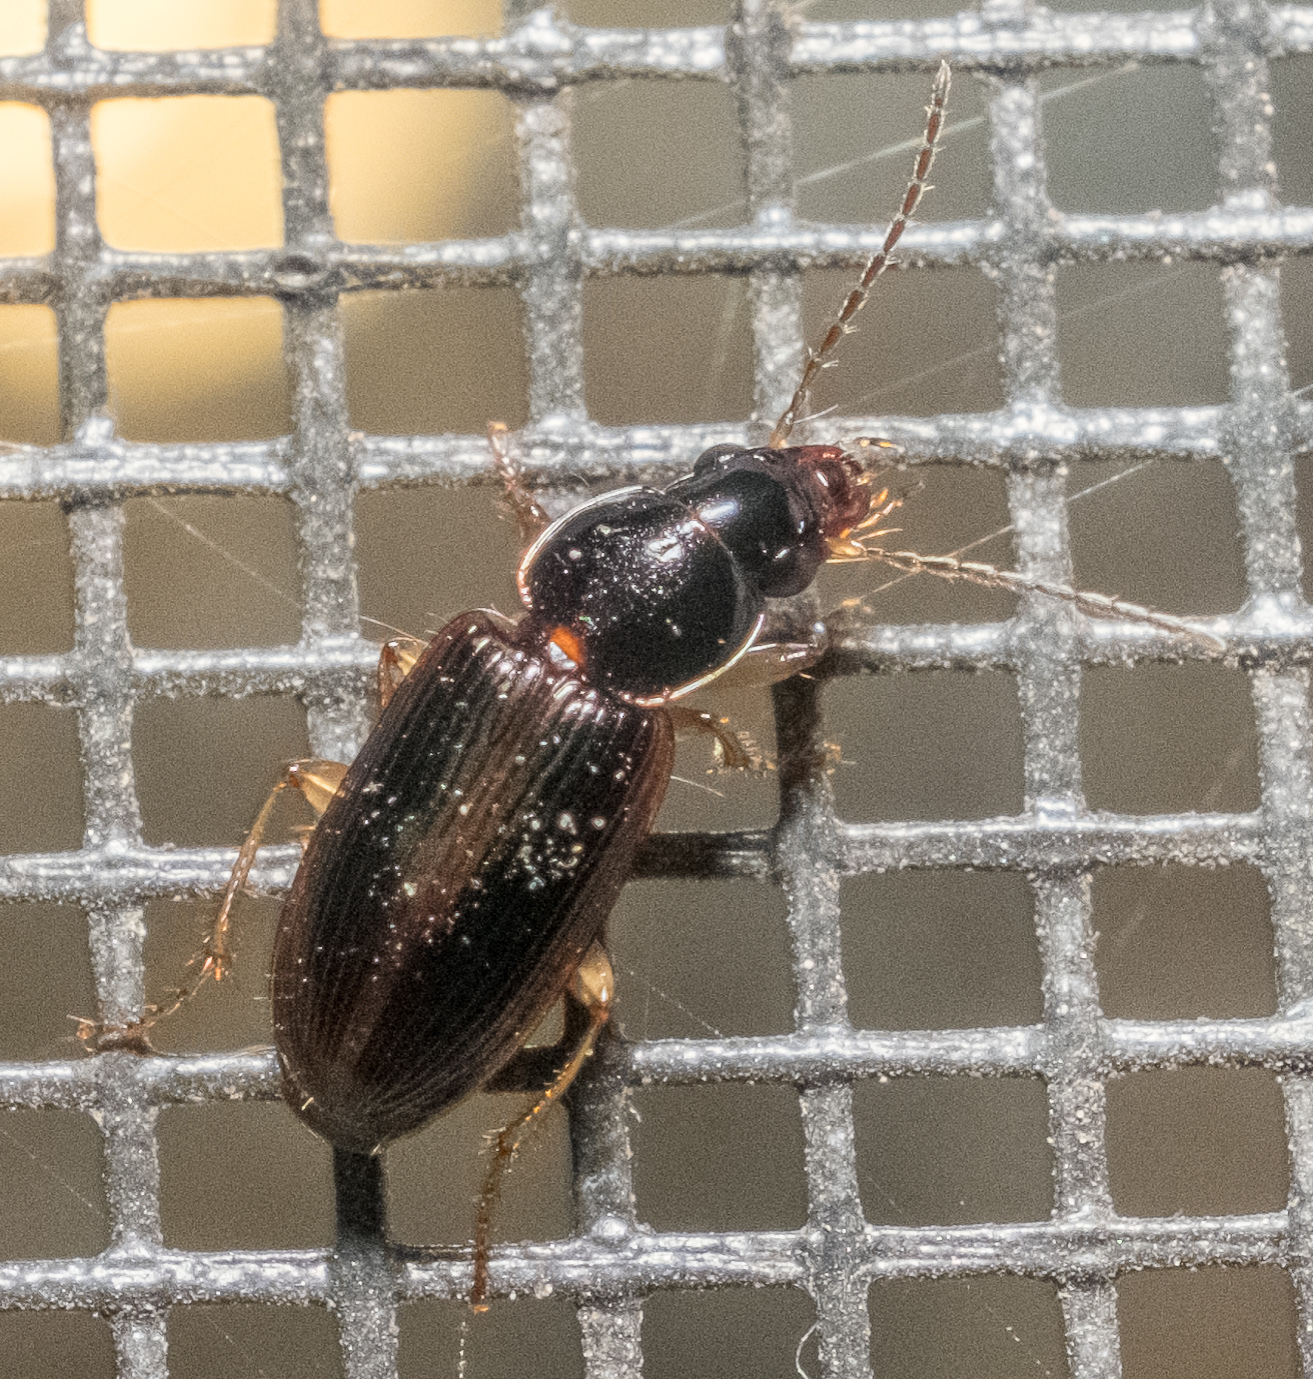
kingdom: Animalia
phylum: Arthropoda
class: Insecta
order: Coleoptera
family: Carabidae
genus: Stenolophus
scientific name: Stenolophus ochropezus
